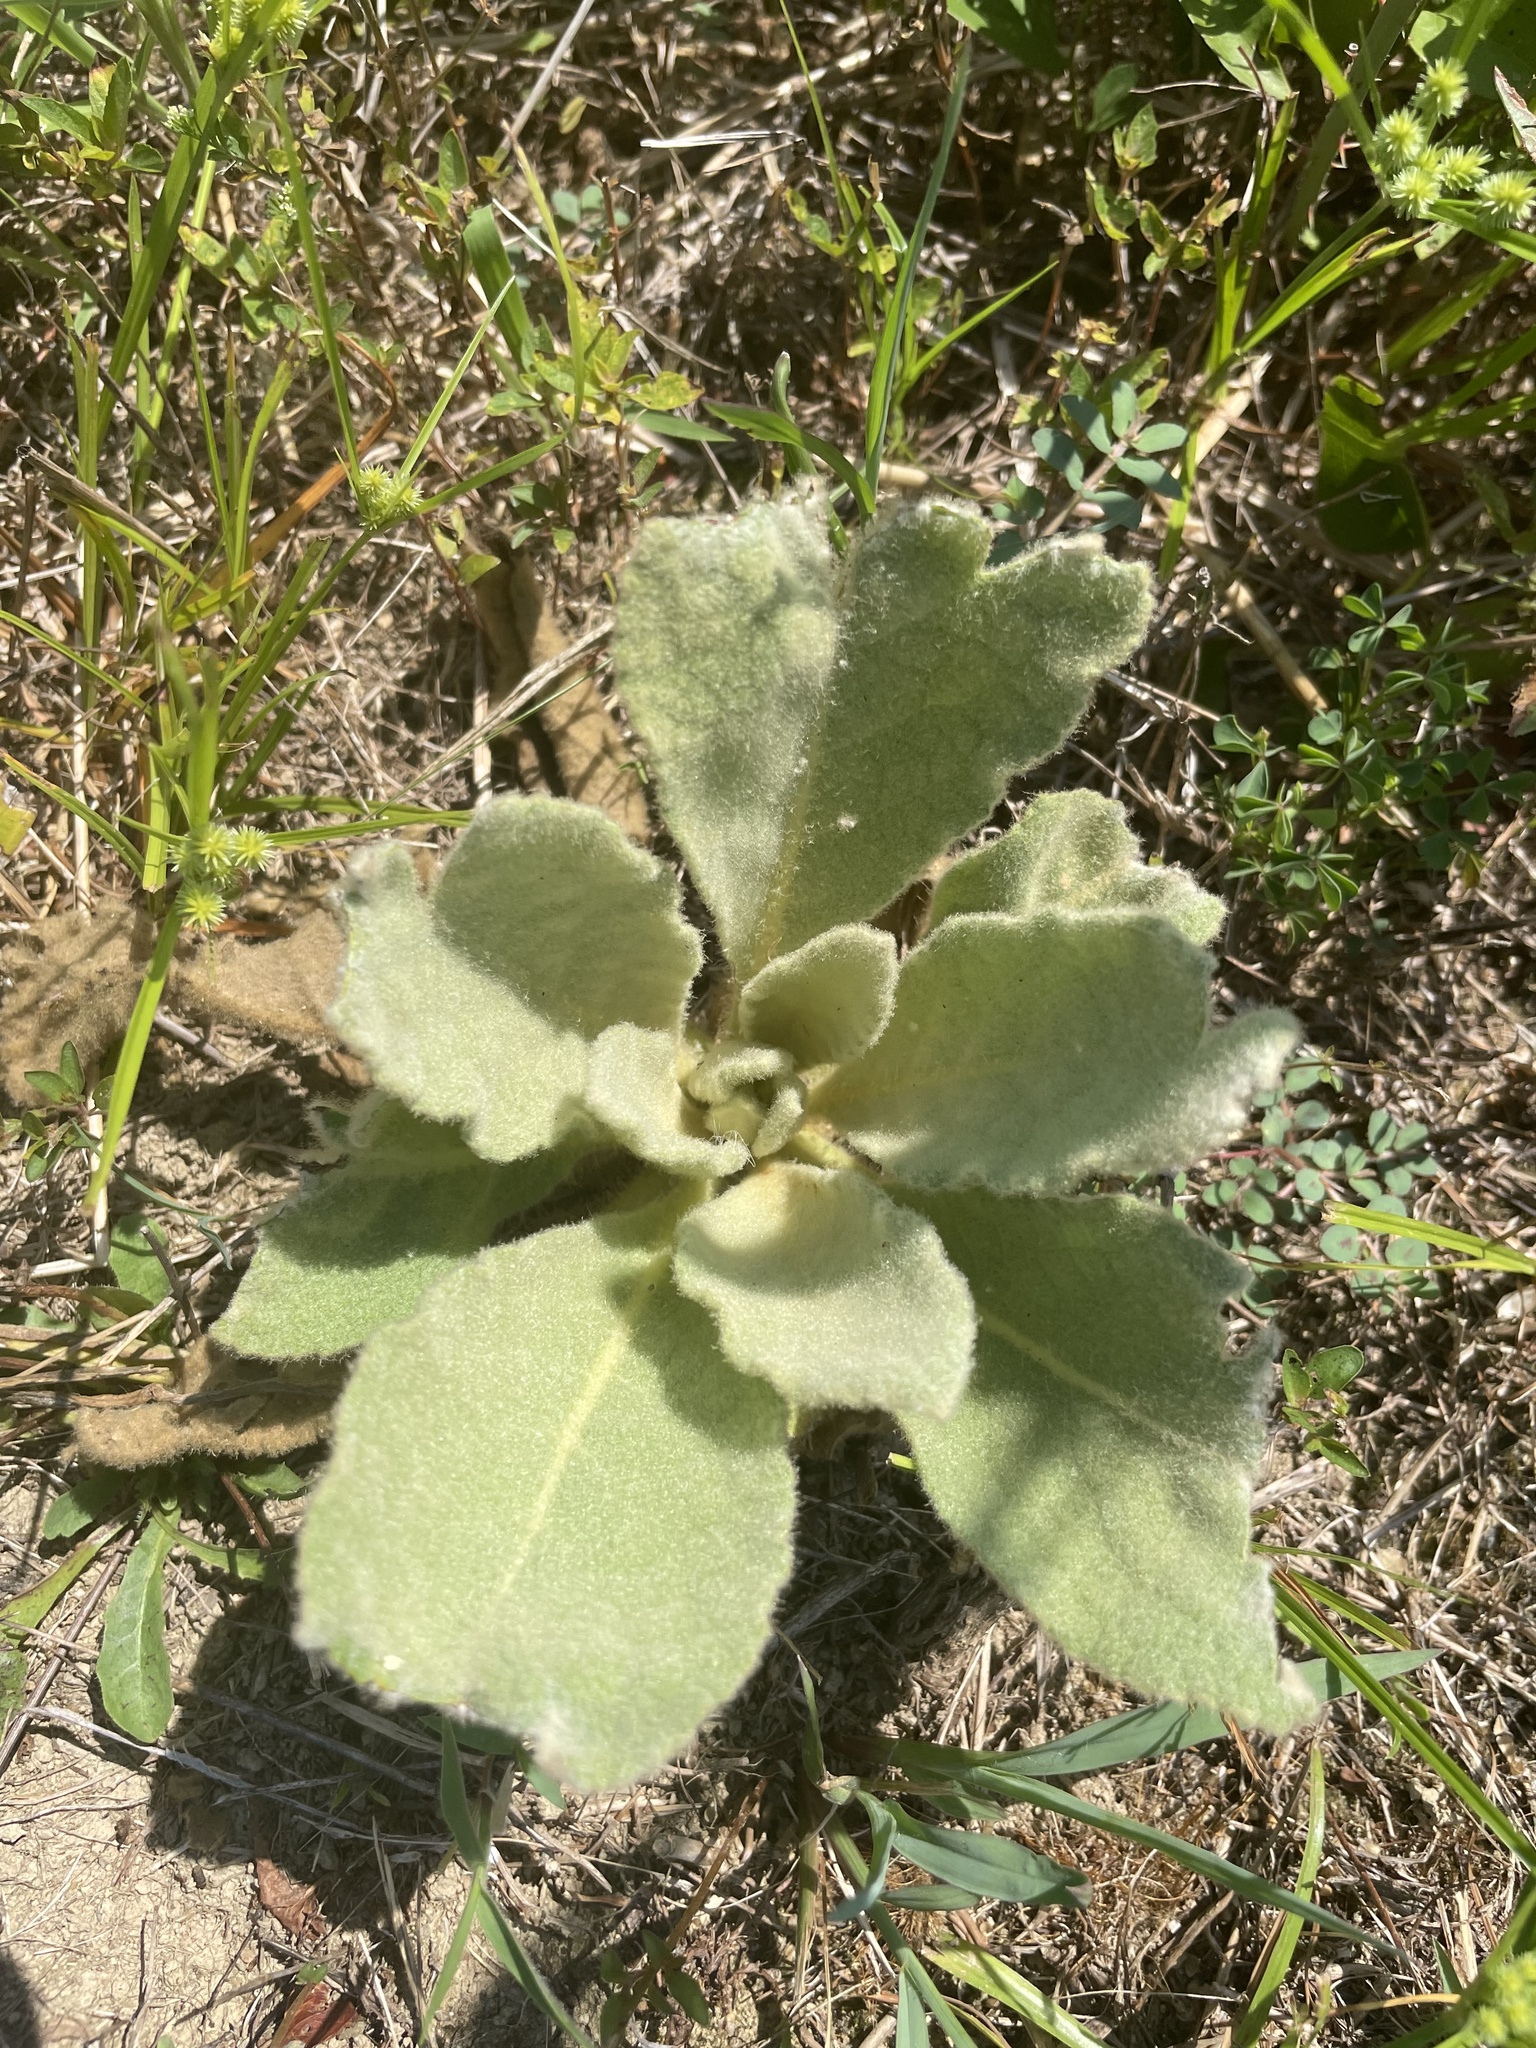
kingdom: Plantae
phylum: Tracheophyta
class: Magnoliopsida
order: Lamiales
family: Scrophulariaceae
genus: Verbascum
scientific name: Verbascum thapsus
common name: Common mullein
